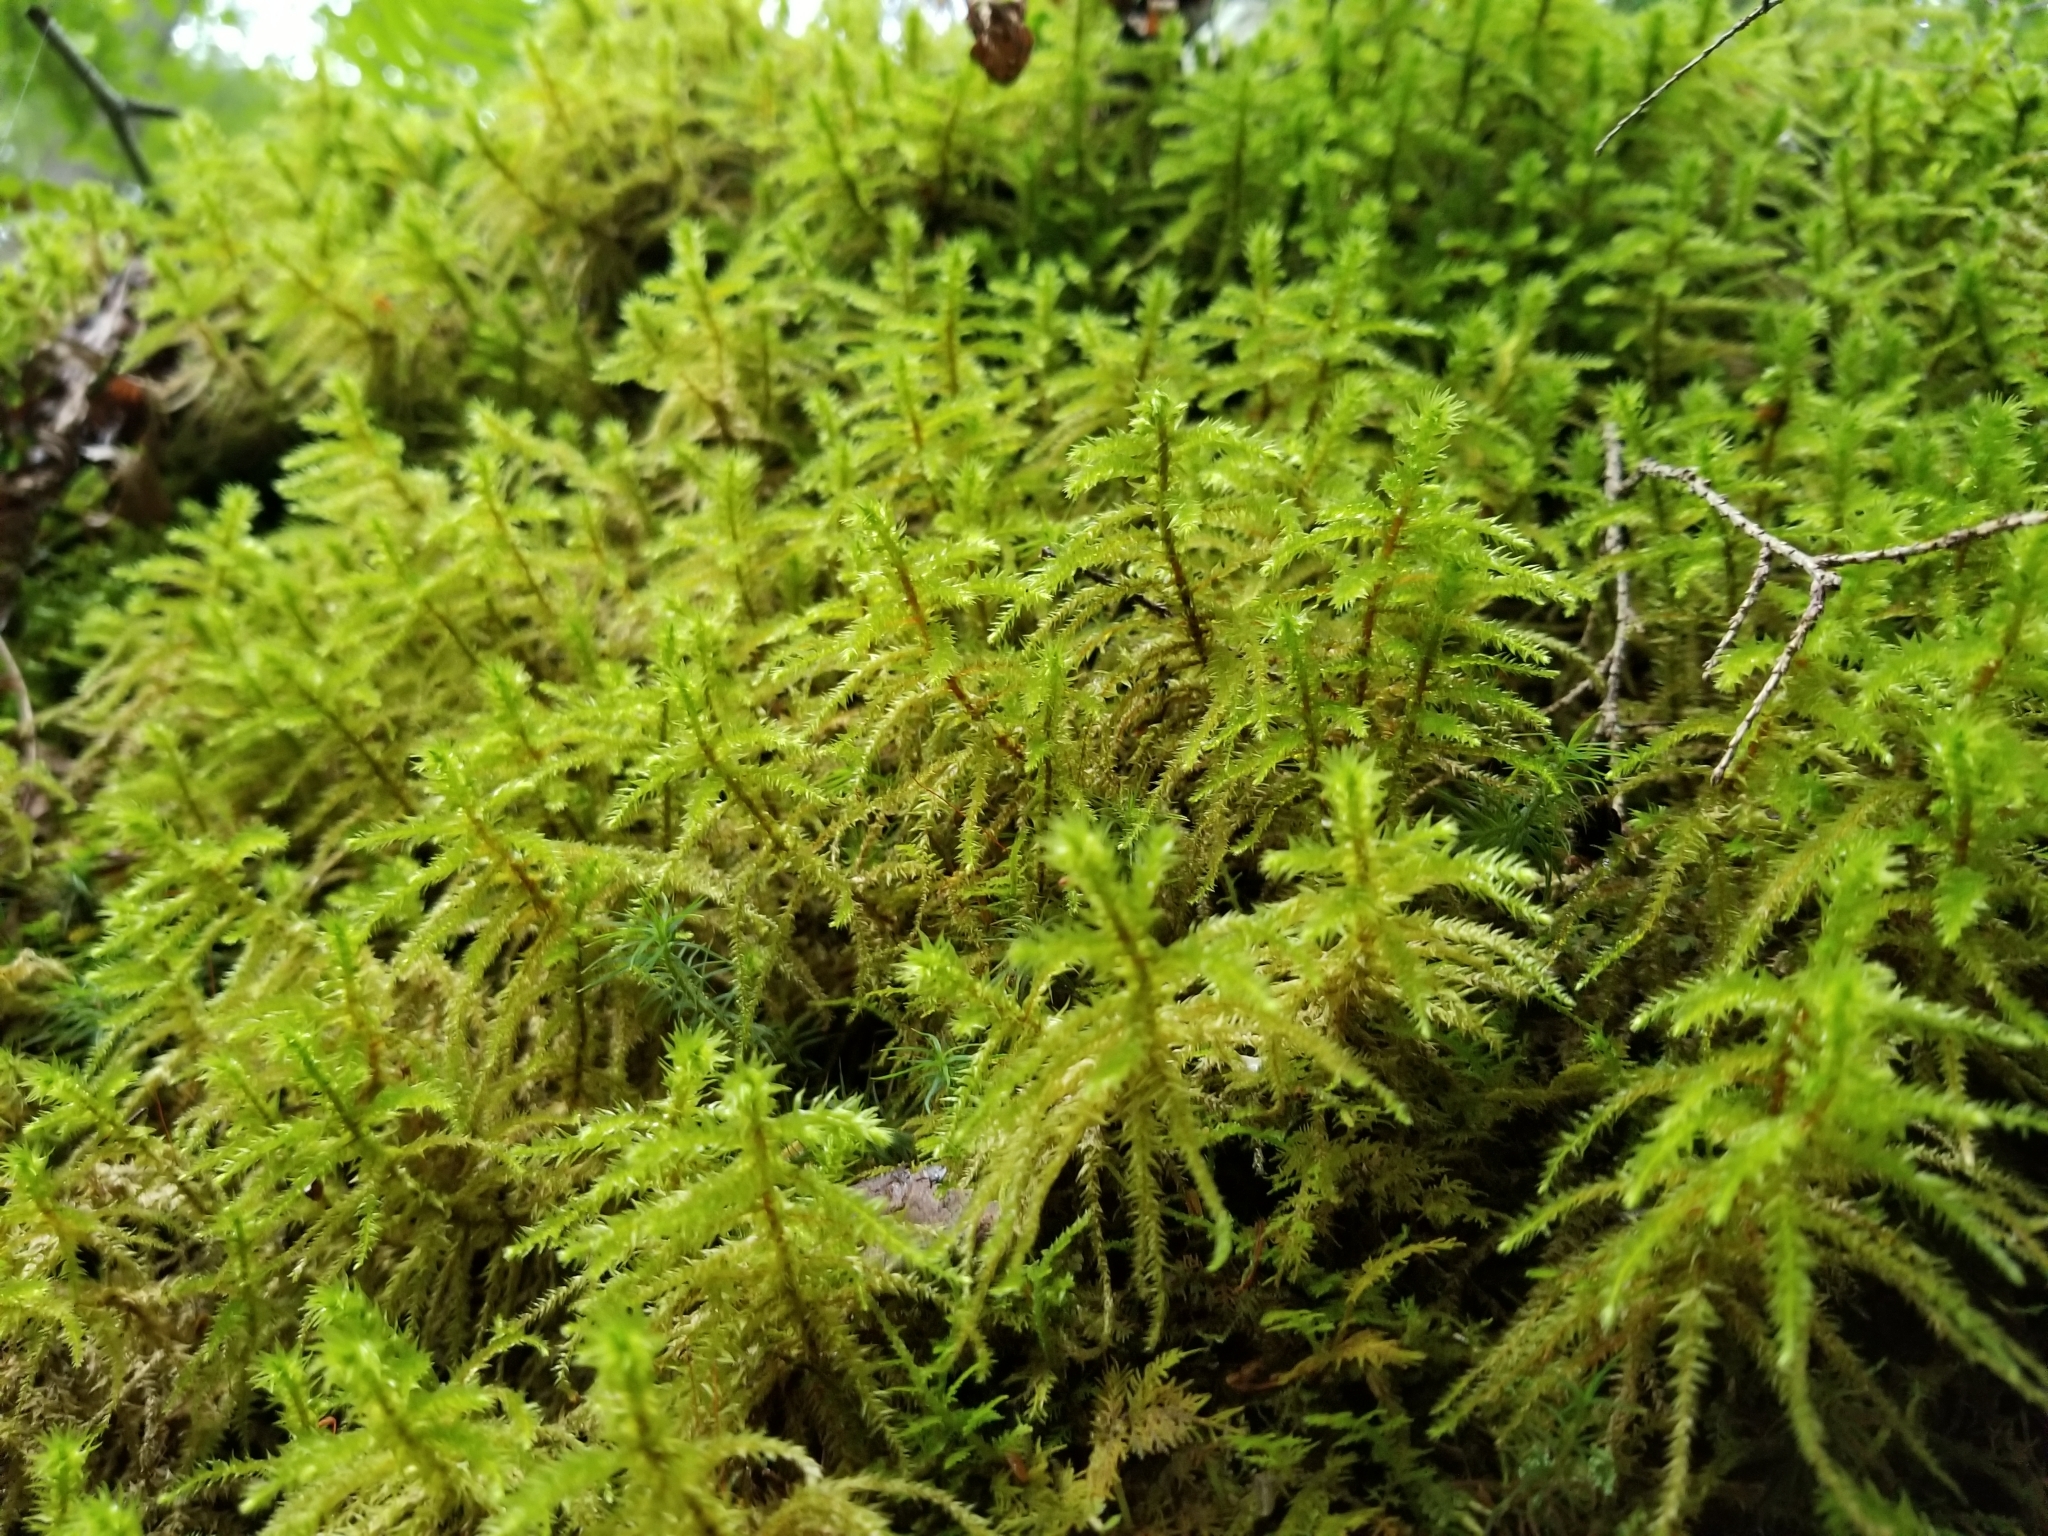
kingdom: Plantae
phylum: Bryophyta
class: Bryopsida
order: Hypnales
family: Hylocomiaceae
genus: Hylocomiadelphus
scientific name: Hylocomiadelphus triquetrus
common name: Rough goose neck moss
